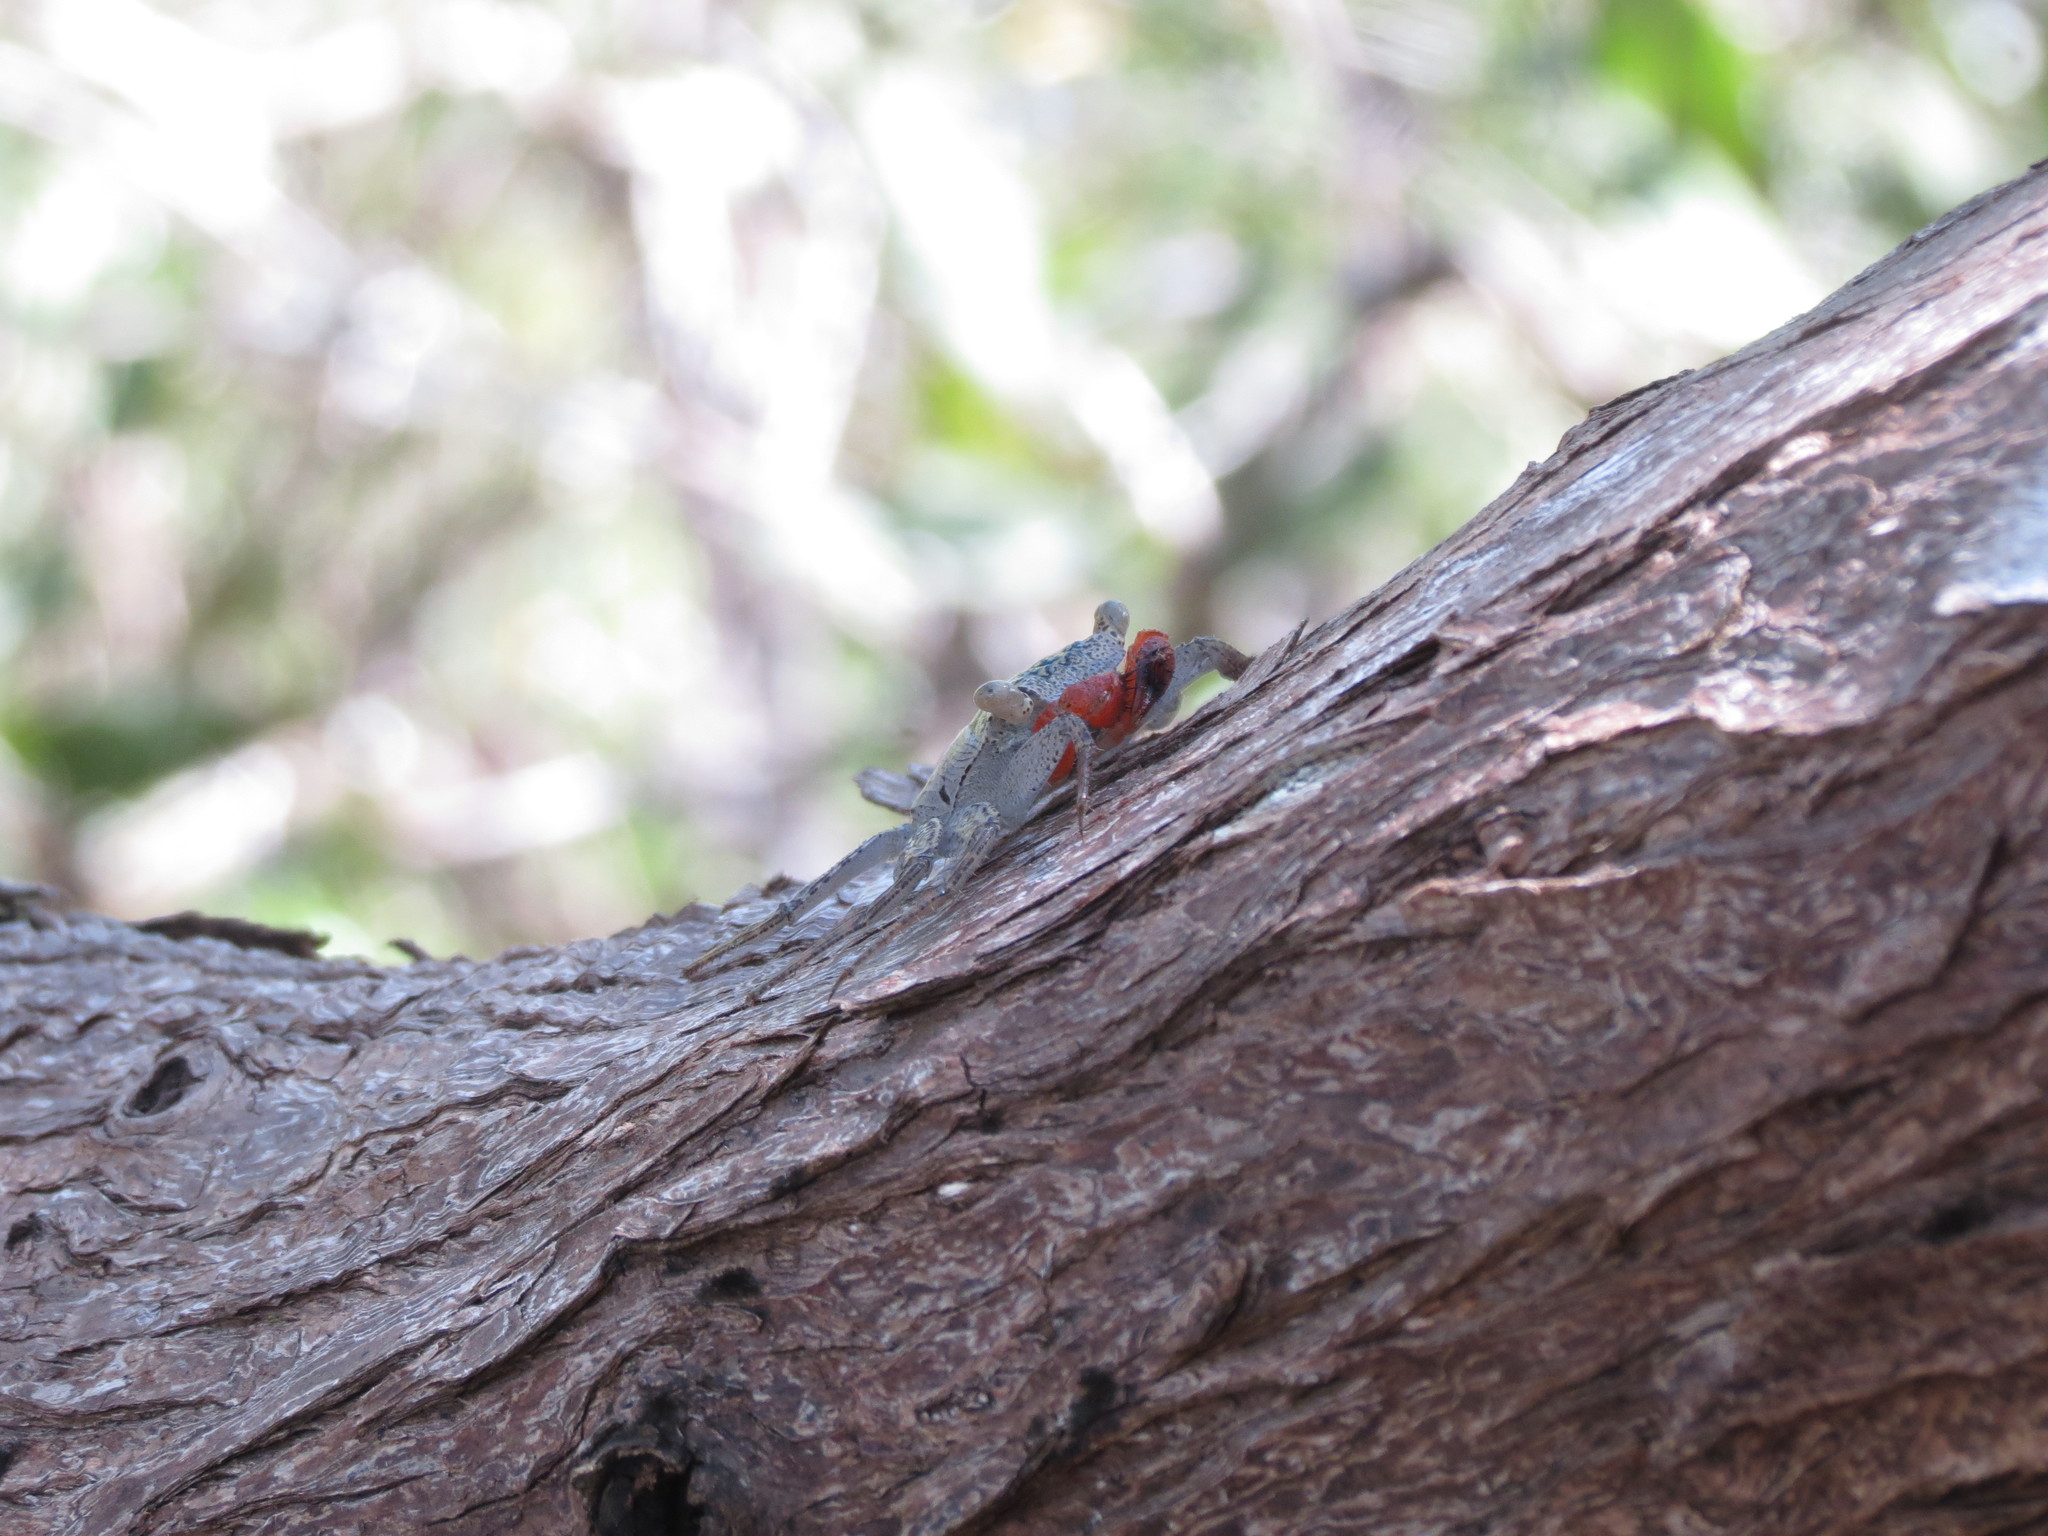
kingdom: Animalia
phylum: Arthropoda
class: Malacostraca
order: Decapoda
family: Sesarmidae
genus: Aratus
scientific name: Aratus pacificus
